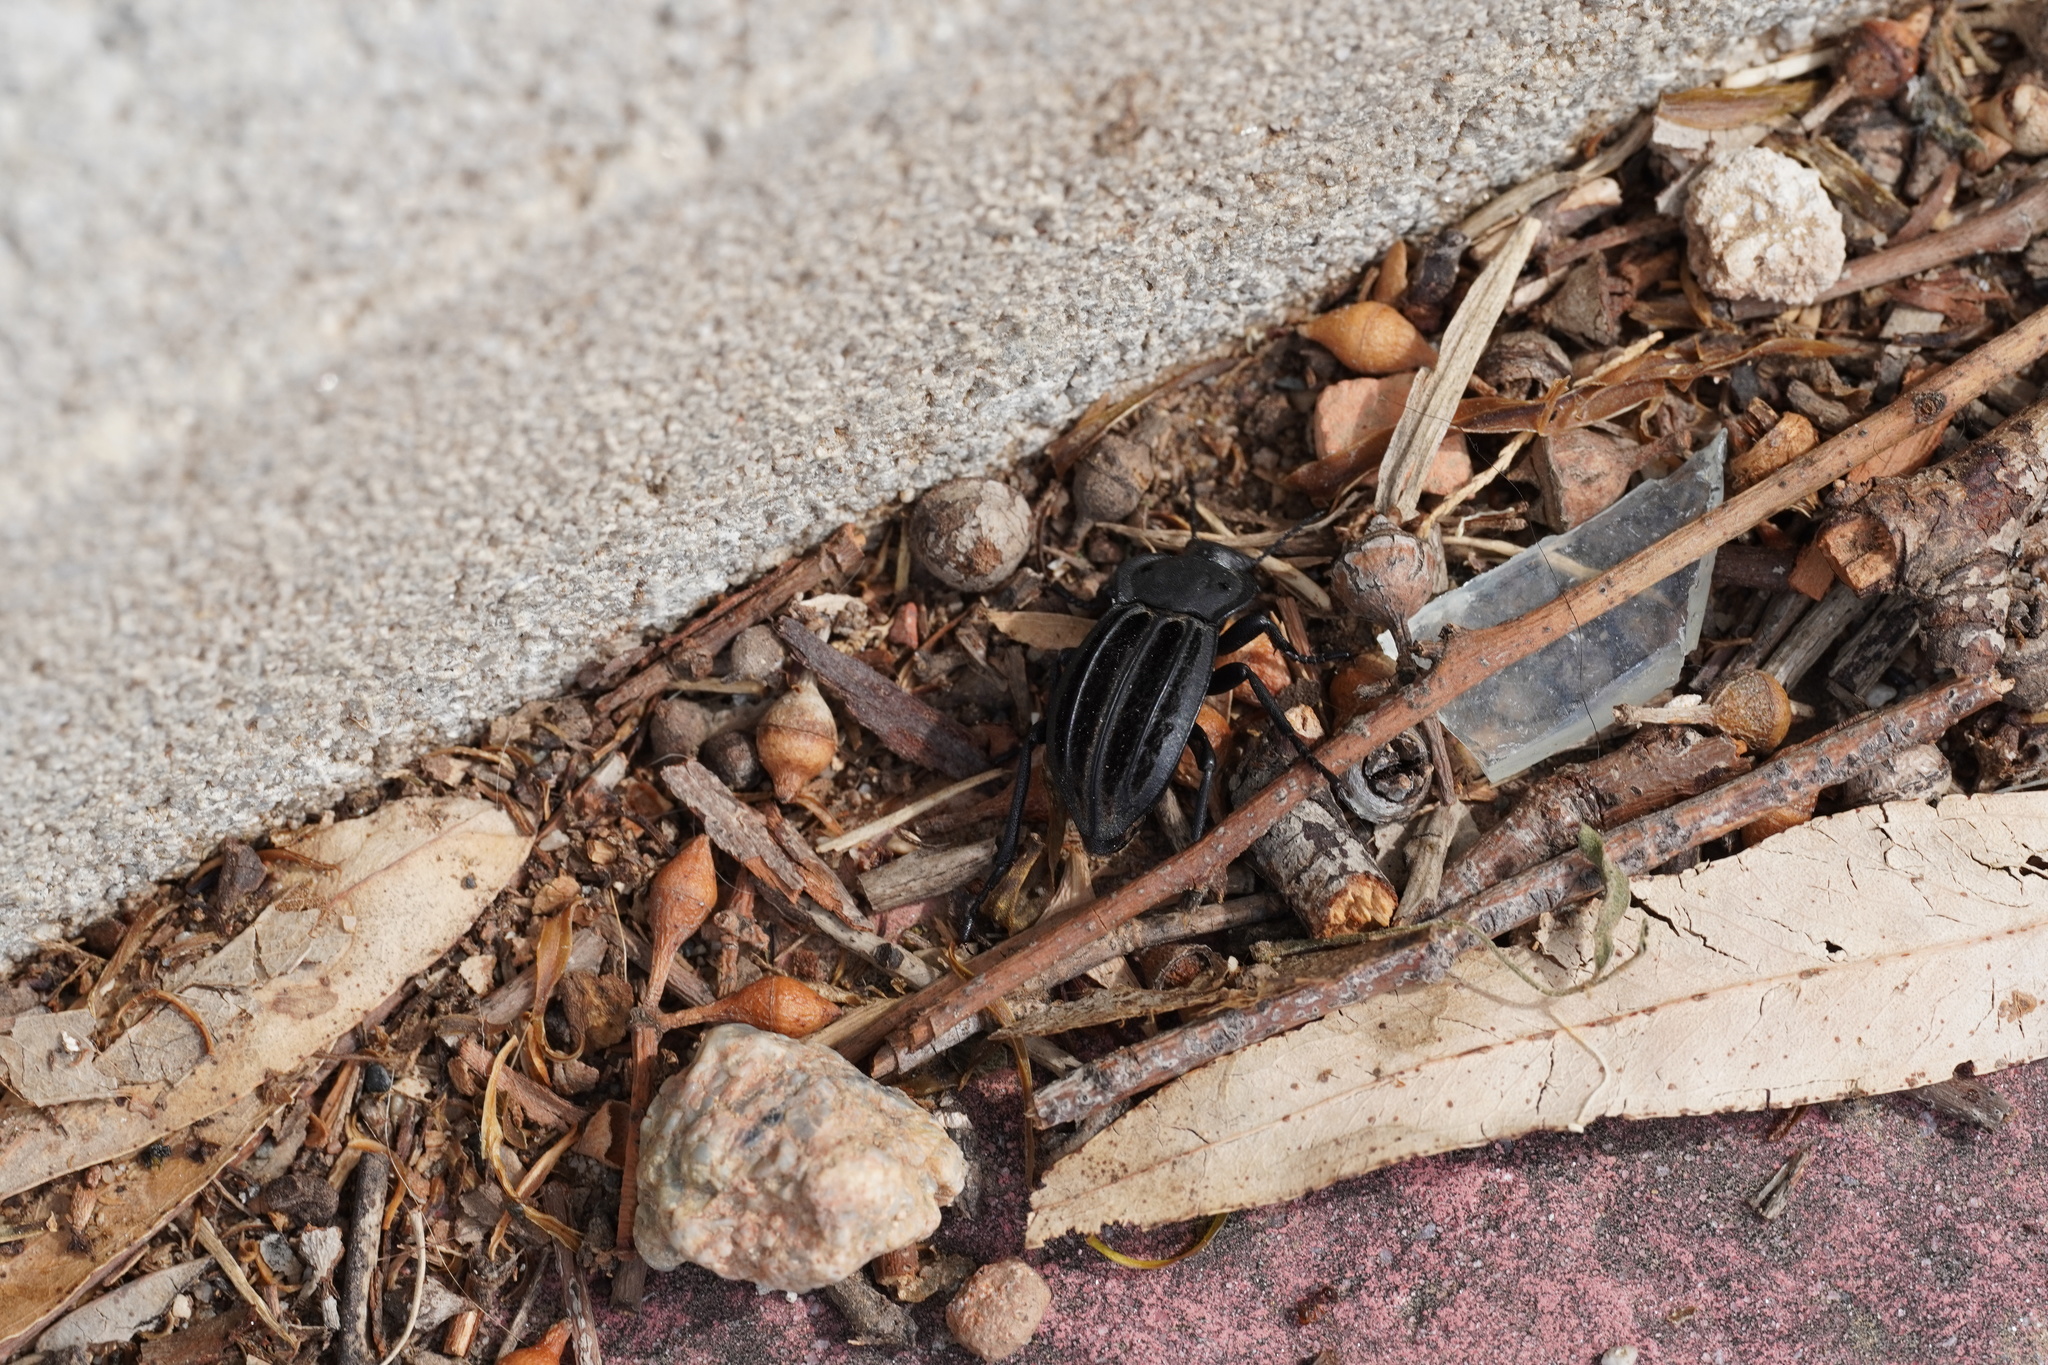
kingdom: Animalia
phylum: Arthropoda
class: Insecta
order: Coleoptera
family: Tenebrionidae
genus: Alphasida
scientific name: Alphasida holosericea
